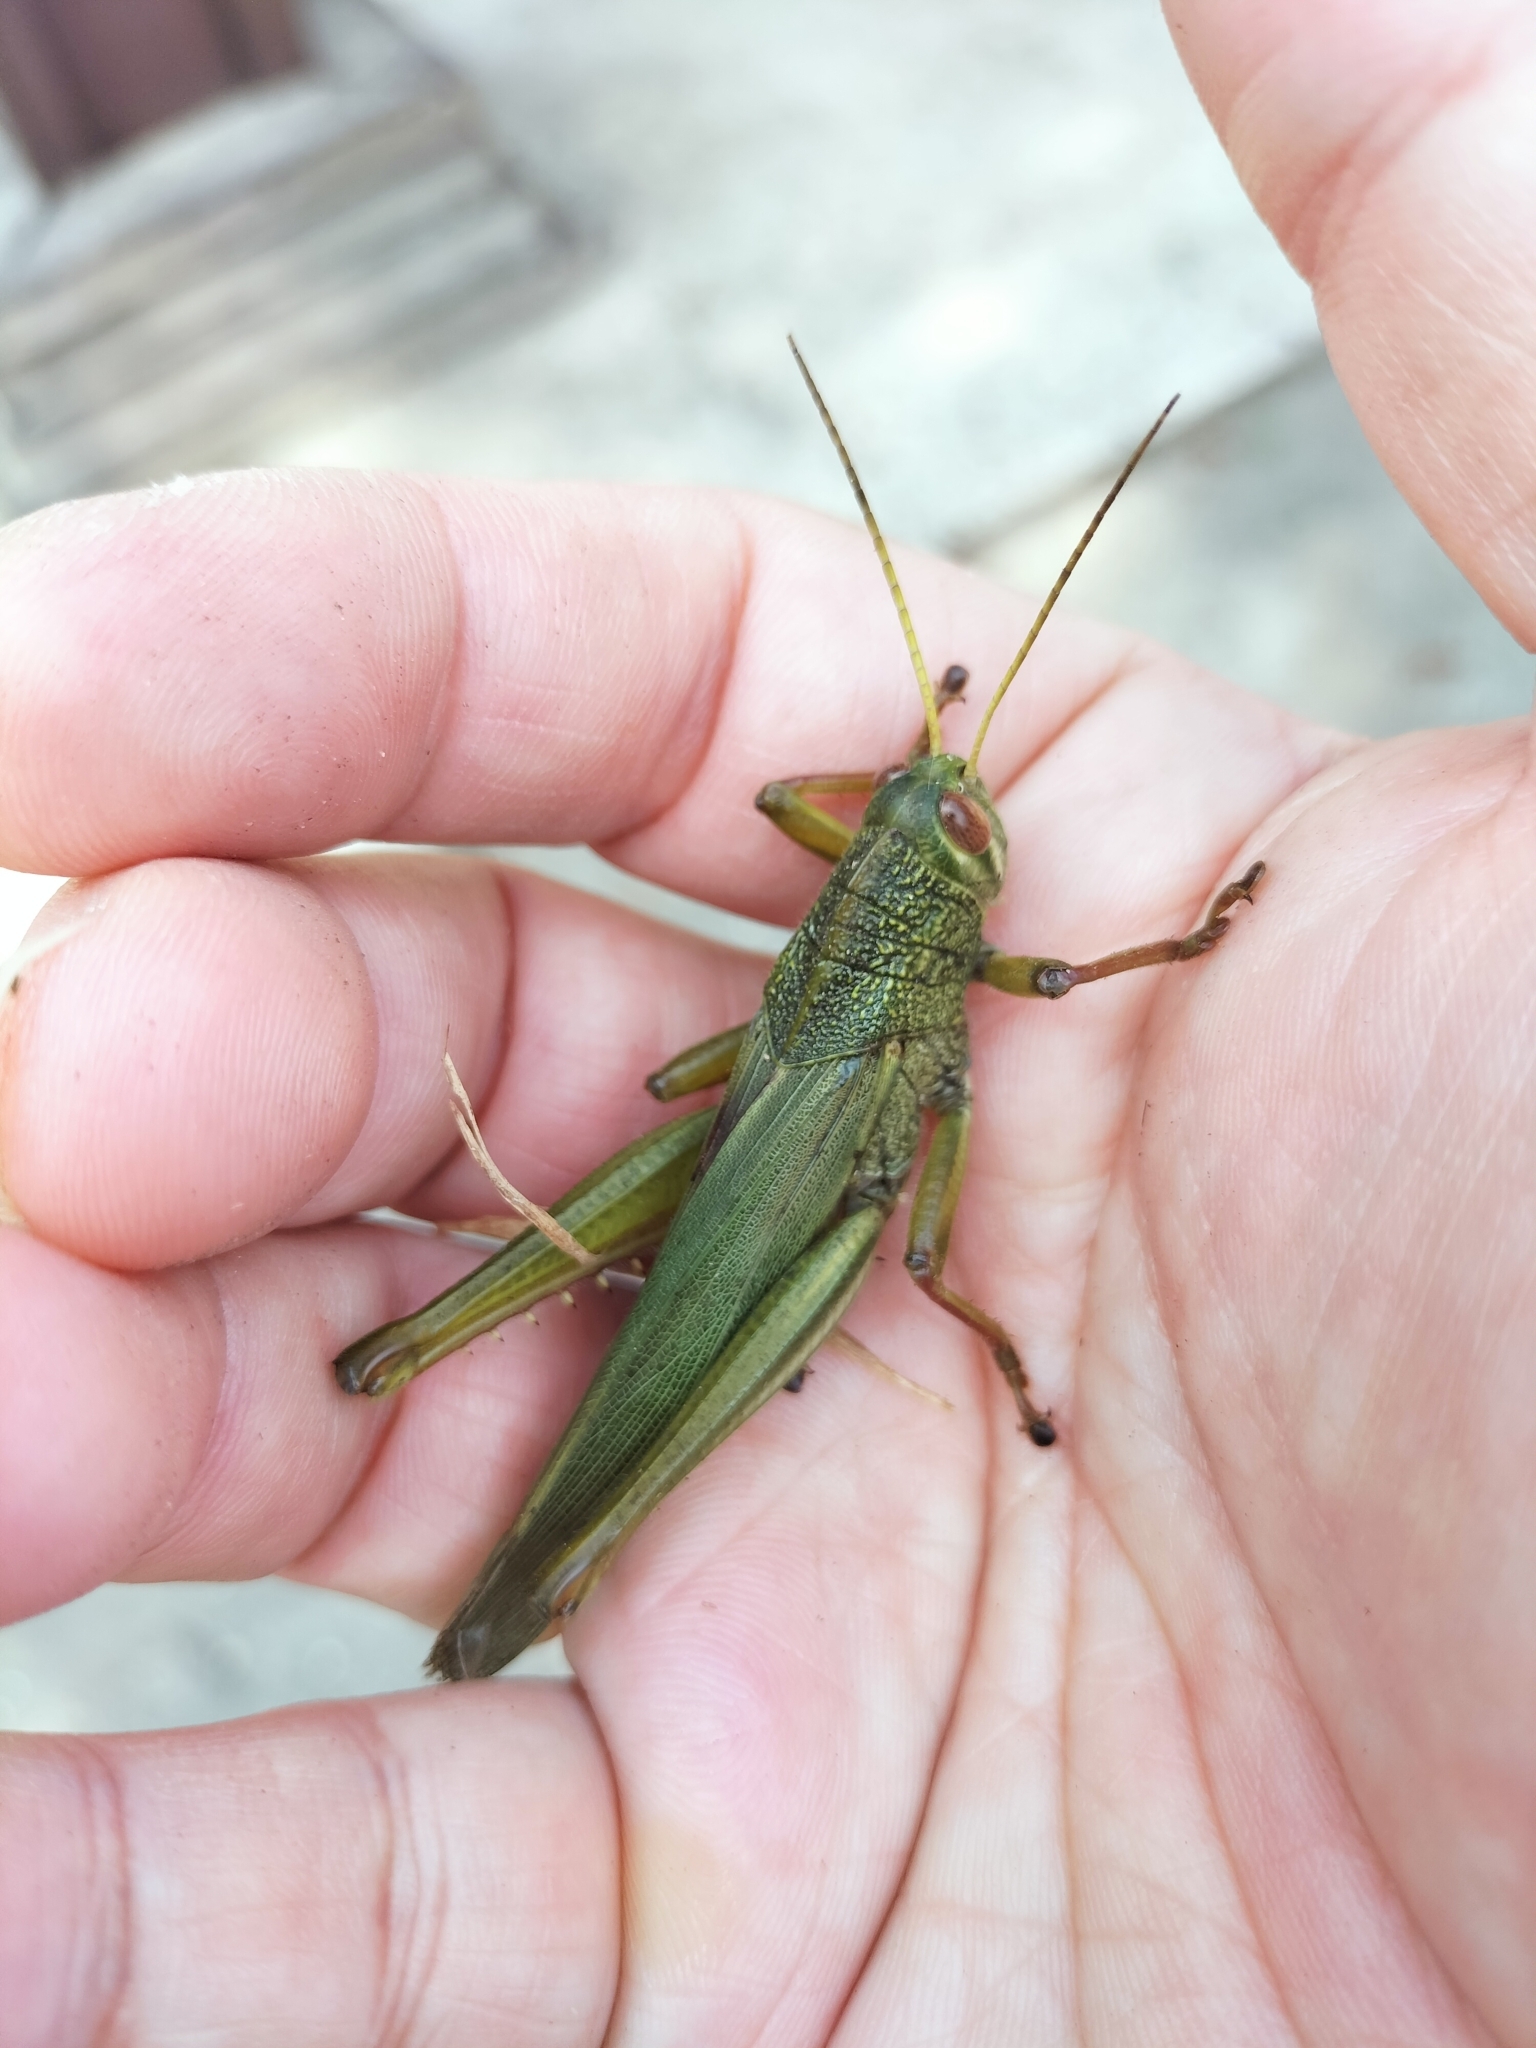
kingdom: Animalia
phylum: Arthropoda
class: Insecta
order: Orthoptera
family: Acrididae
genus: Chondracris
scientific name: Chondracris rosea
